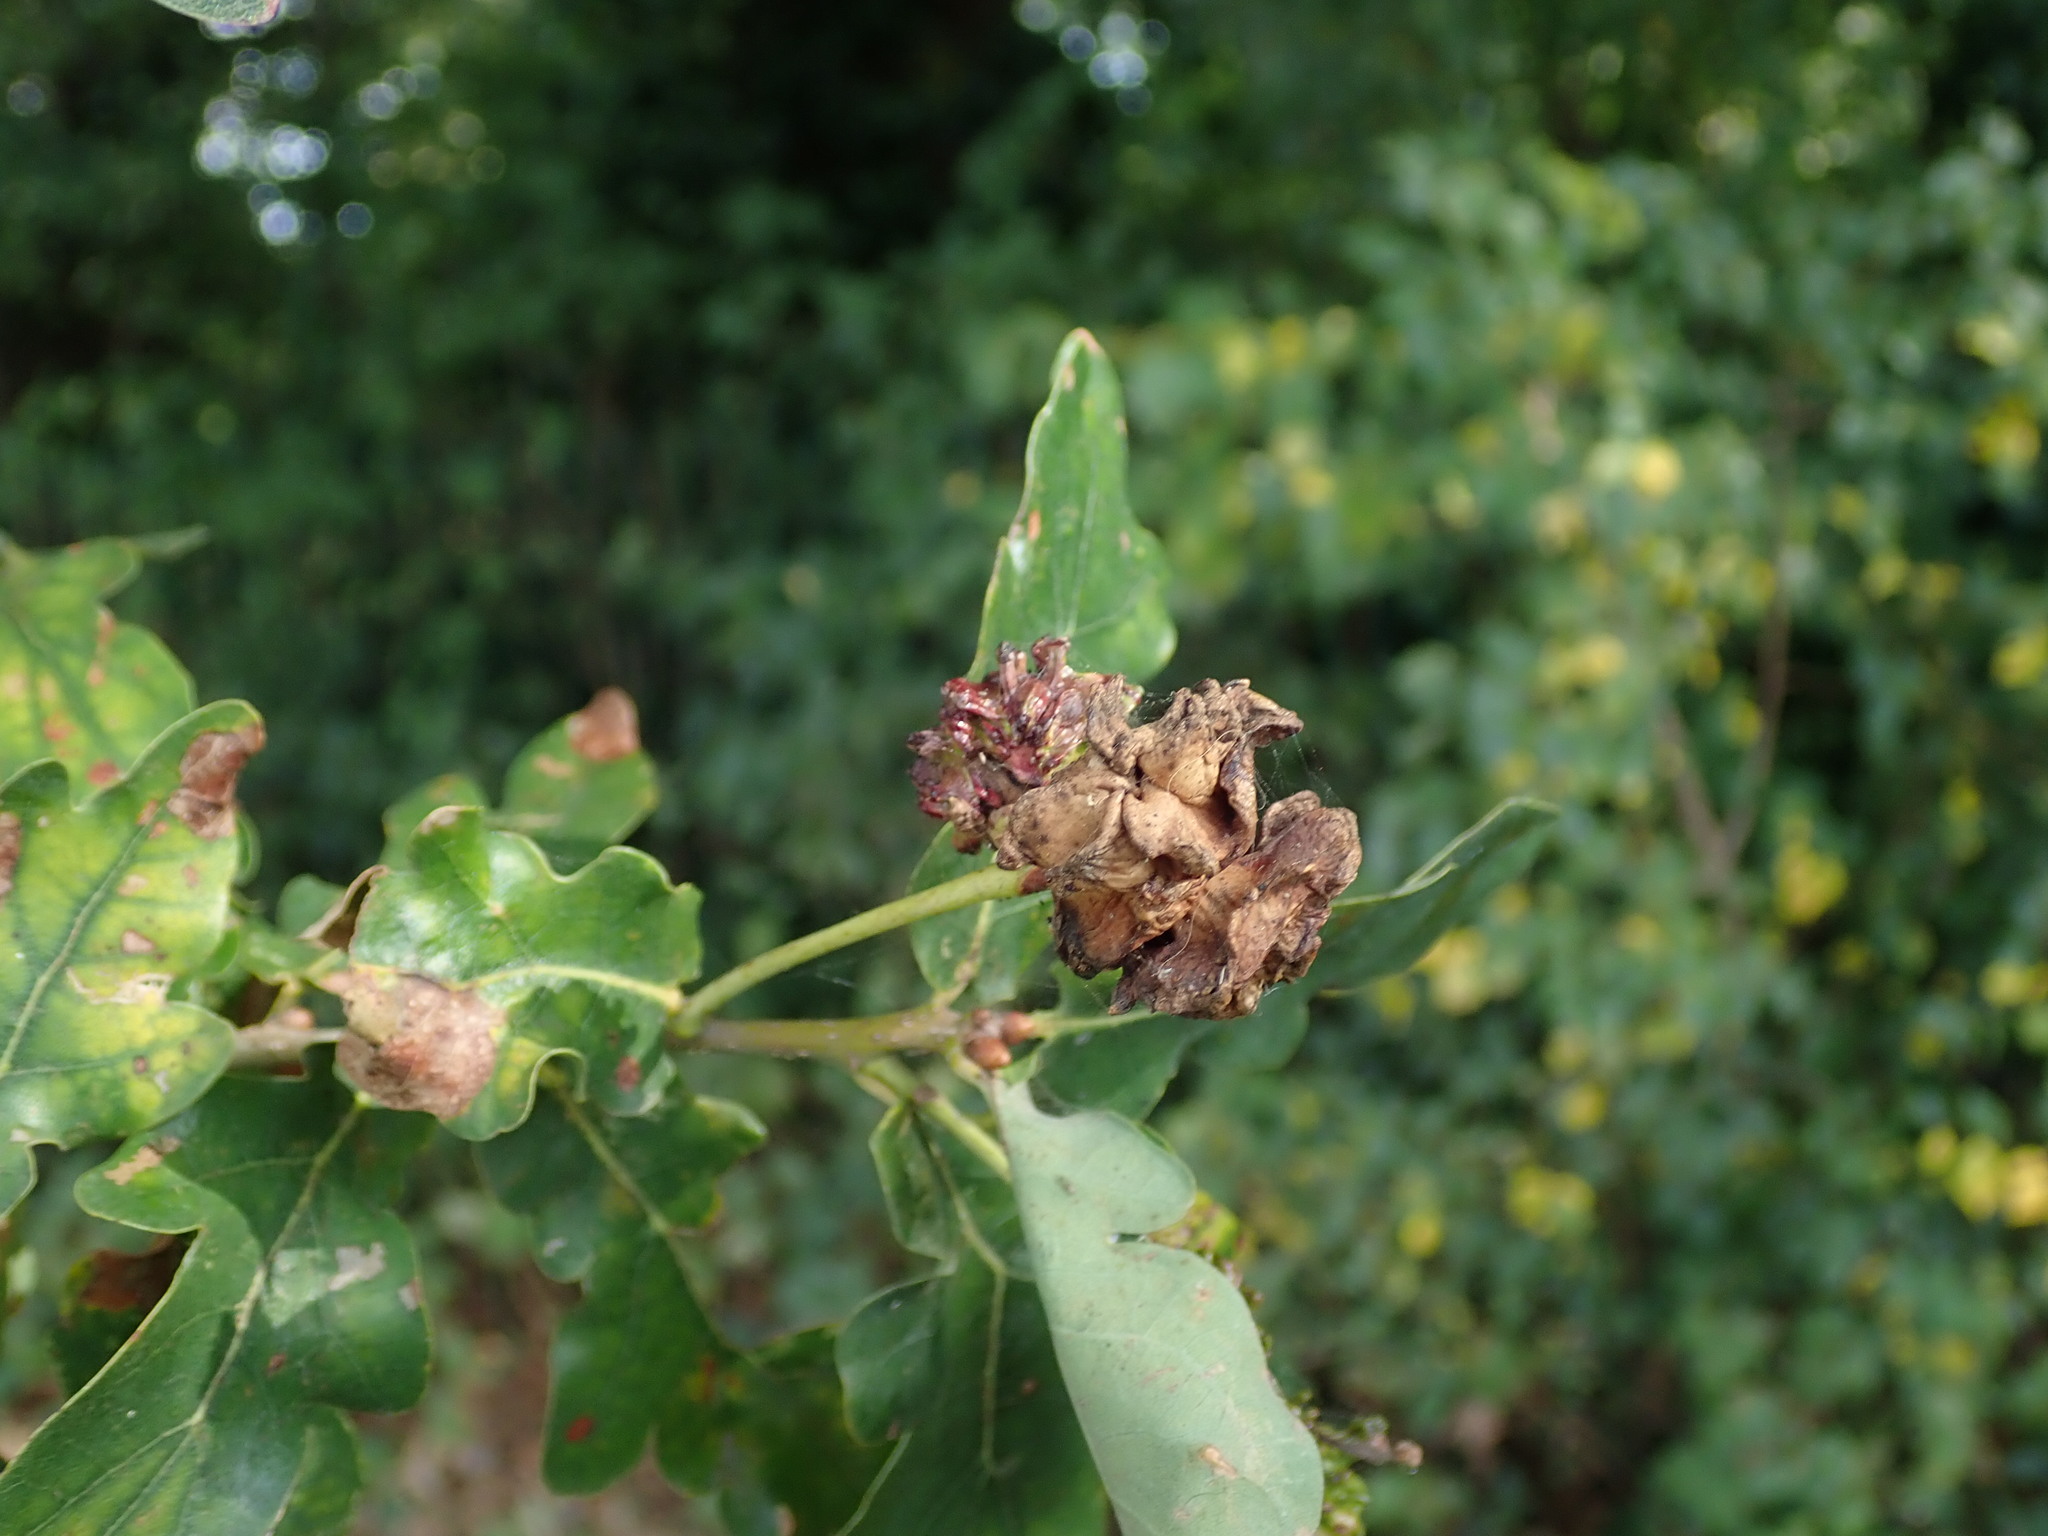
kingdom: Animalia
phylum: Arthropoda
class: Insecta
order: Hymenoptera
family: Cynipidae
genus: Andricus
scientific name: Andricus quercuscalicis
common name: Knopper gall
